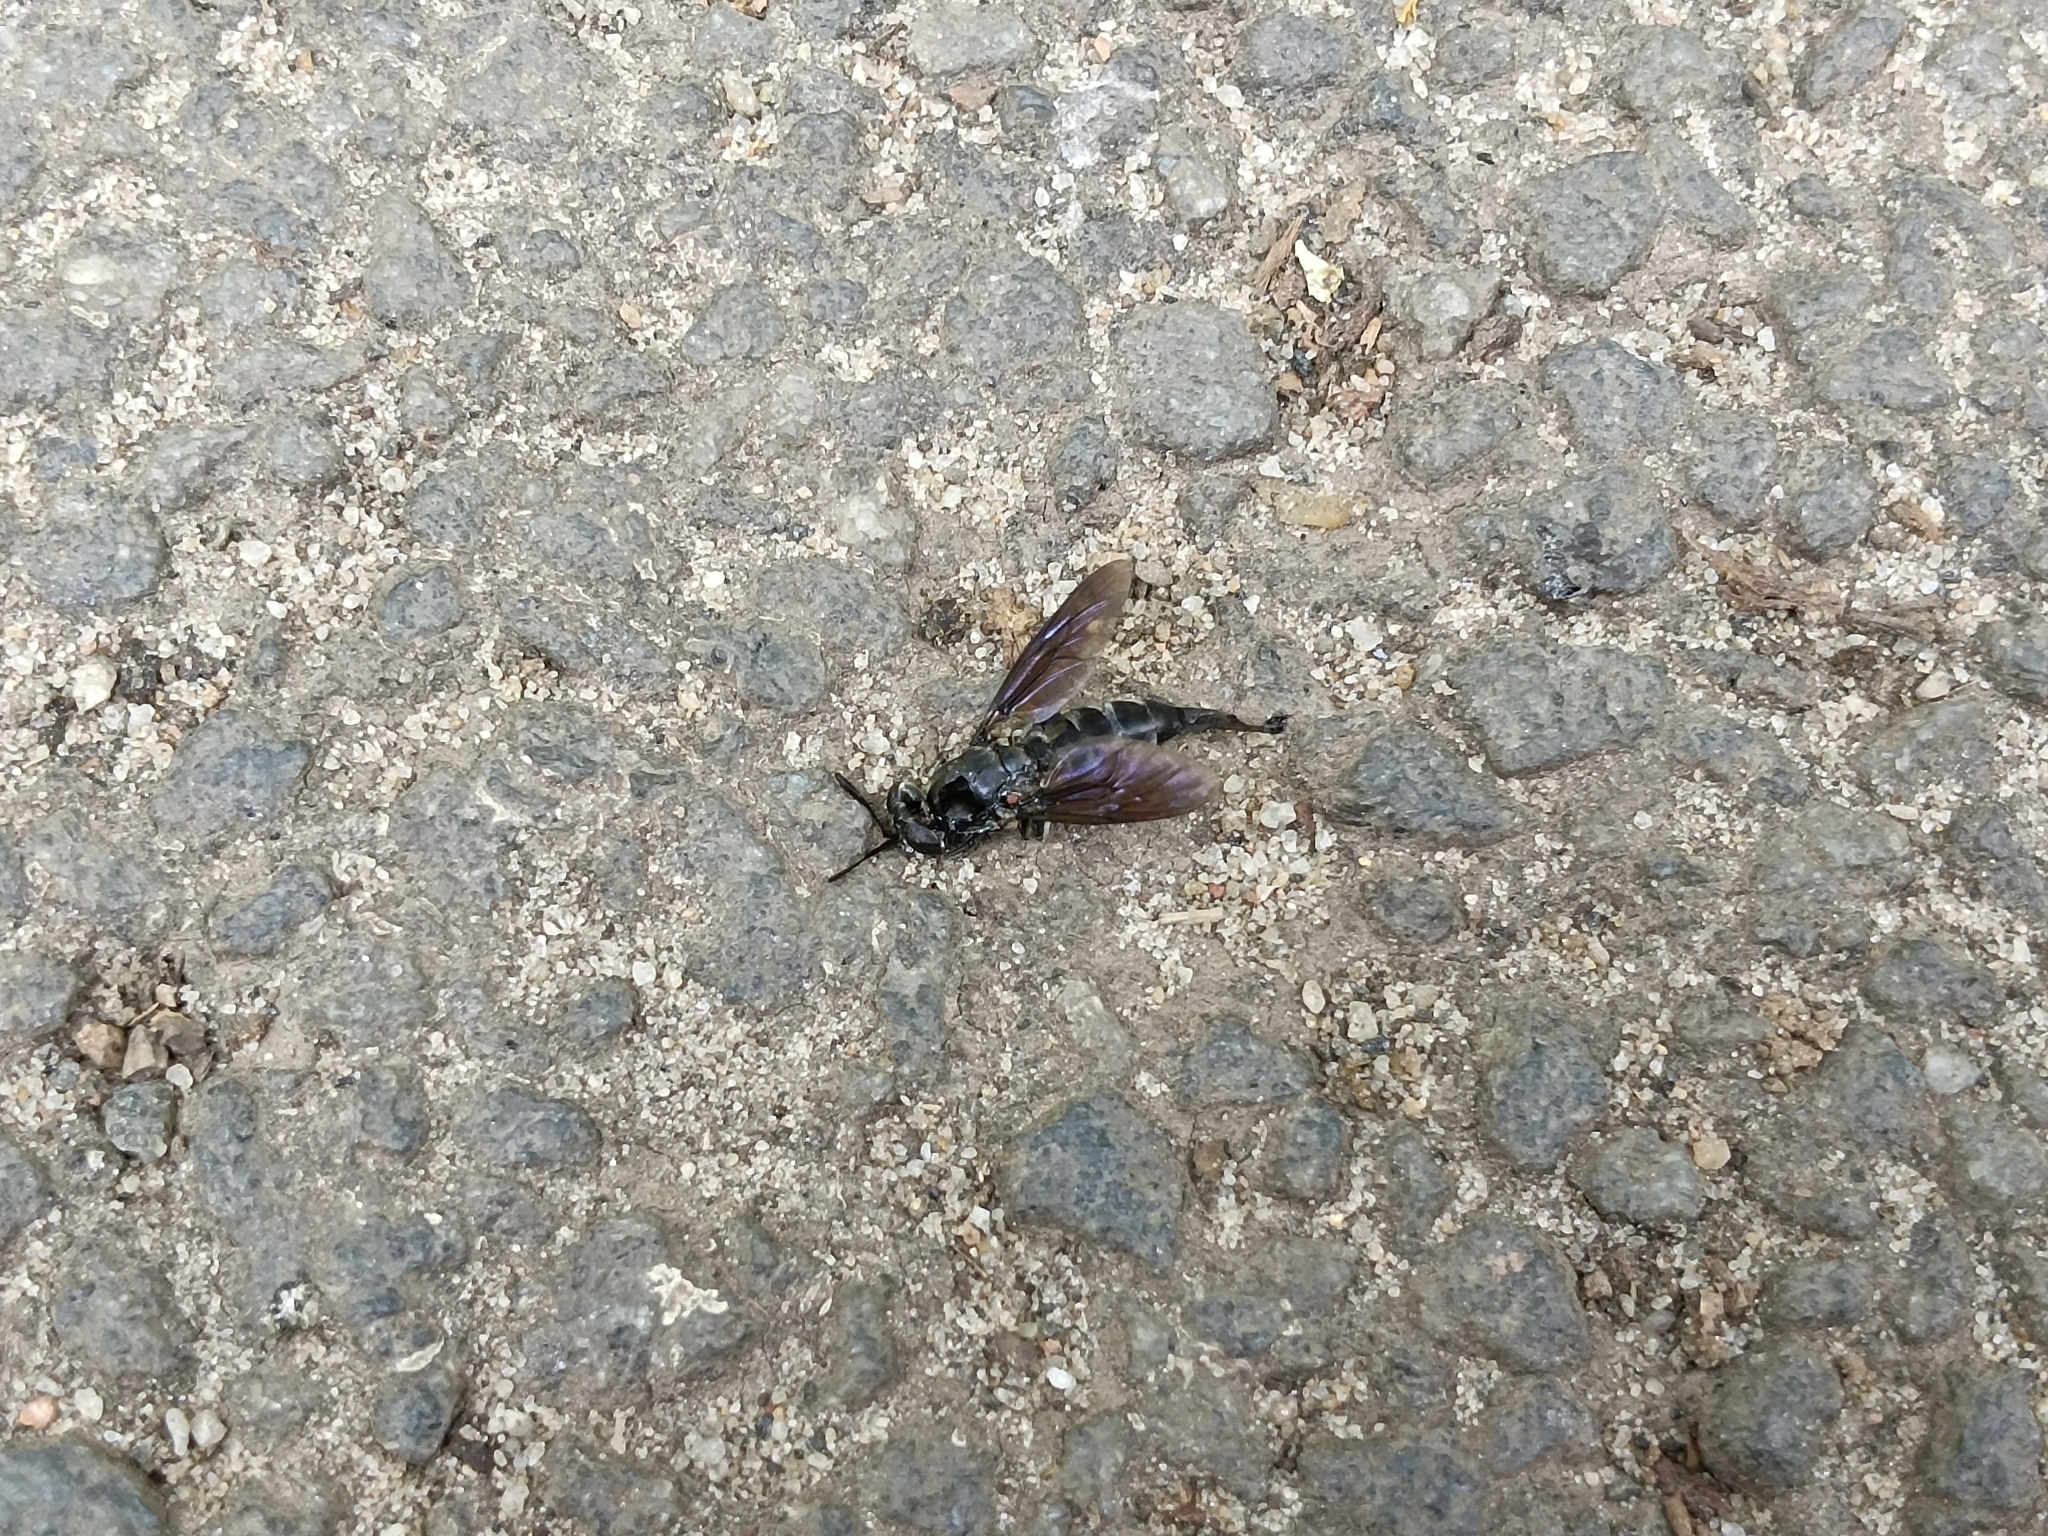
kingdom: Animalia
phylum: Arthropoda
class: Insecta
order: Diptera
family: Stratiomyidae
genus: Hermetia
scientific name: Hermetia illucens
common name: Black soldier fly
